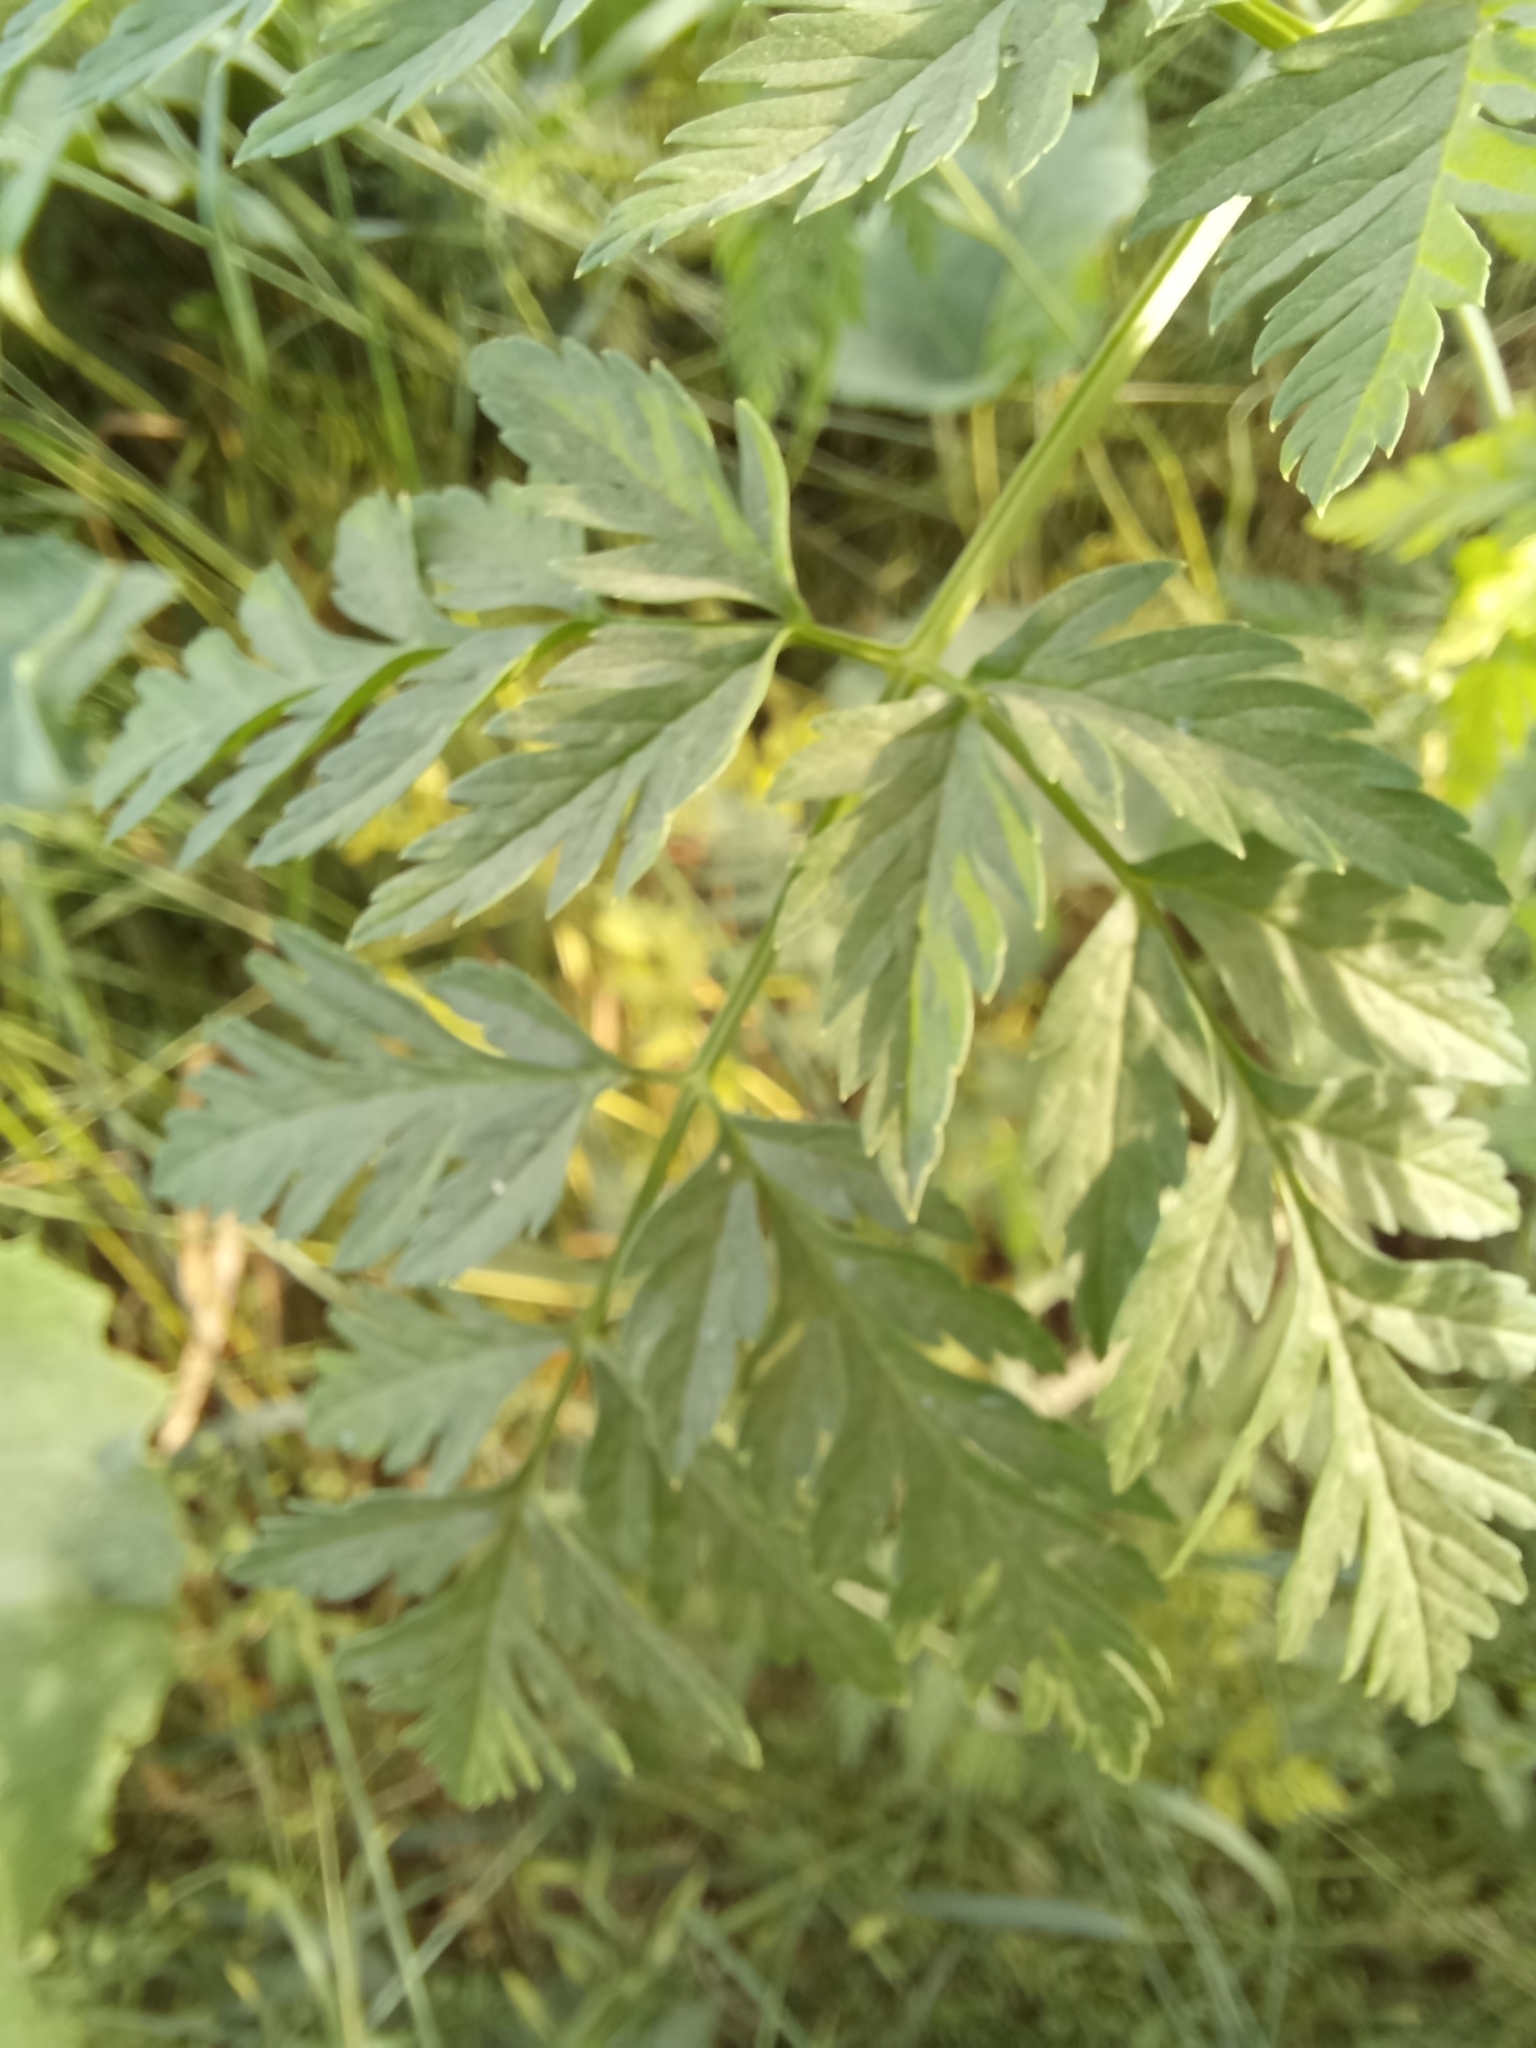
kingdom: Plantae
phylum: Tracheophyta
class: Magnoliopsida
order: Apiales
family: Apiaceae
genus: Conium
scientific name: Conium maculatum
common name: Hemlock
